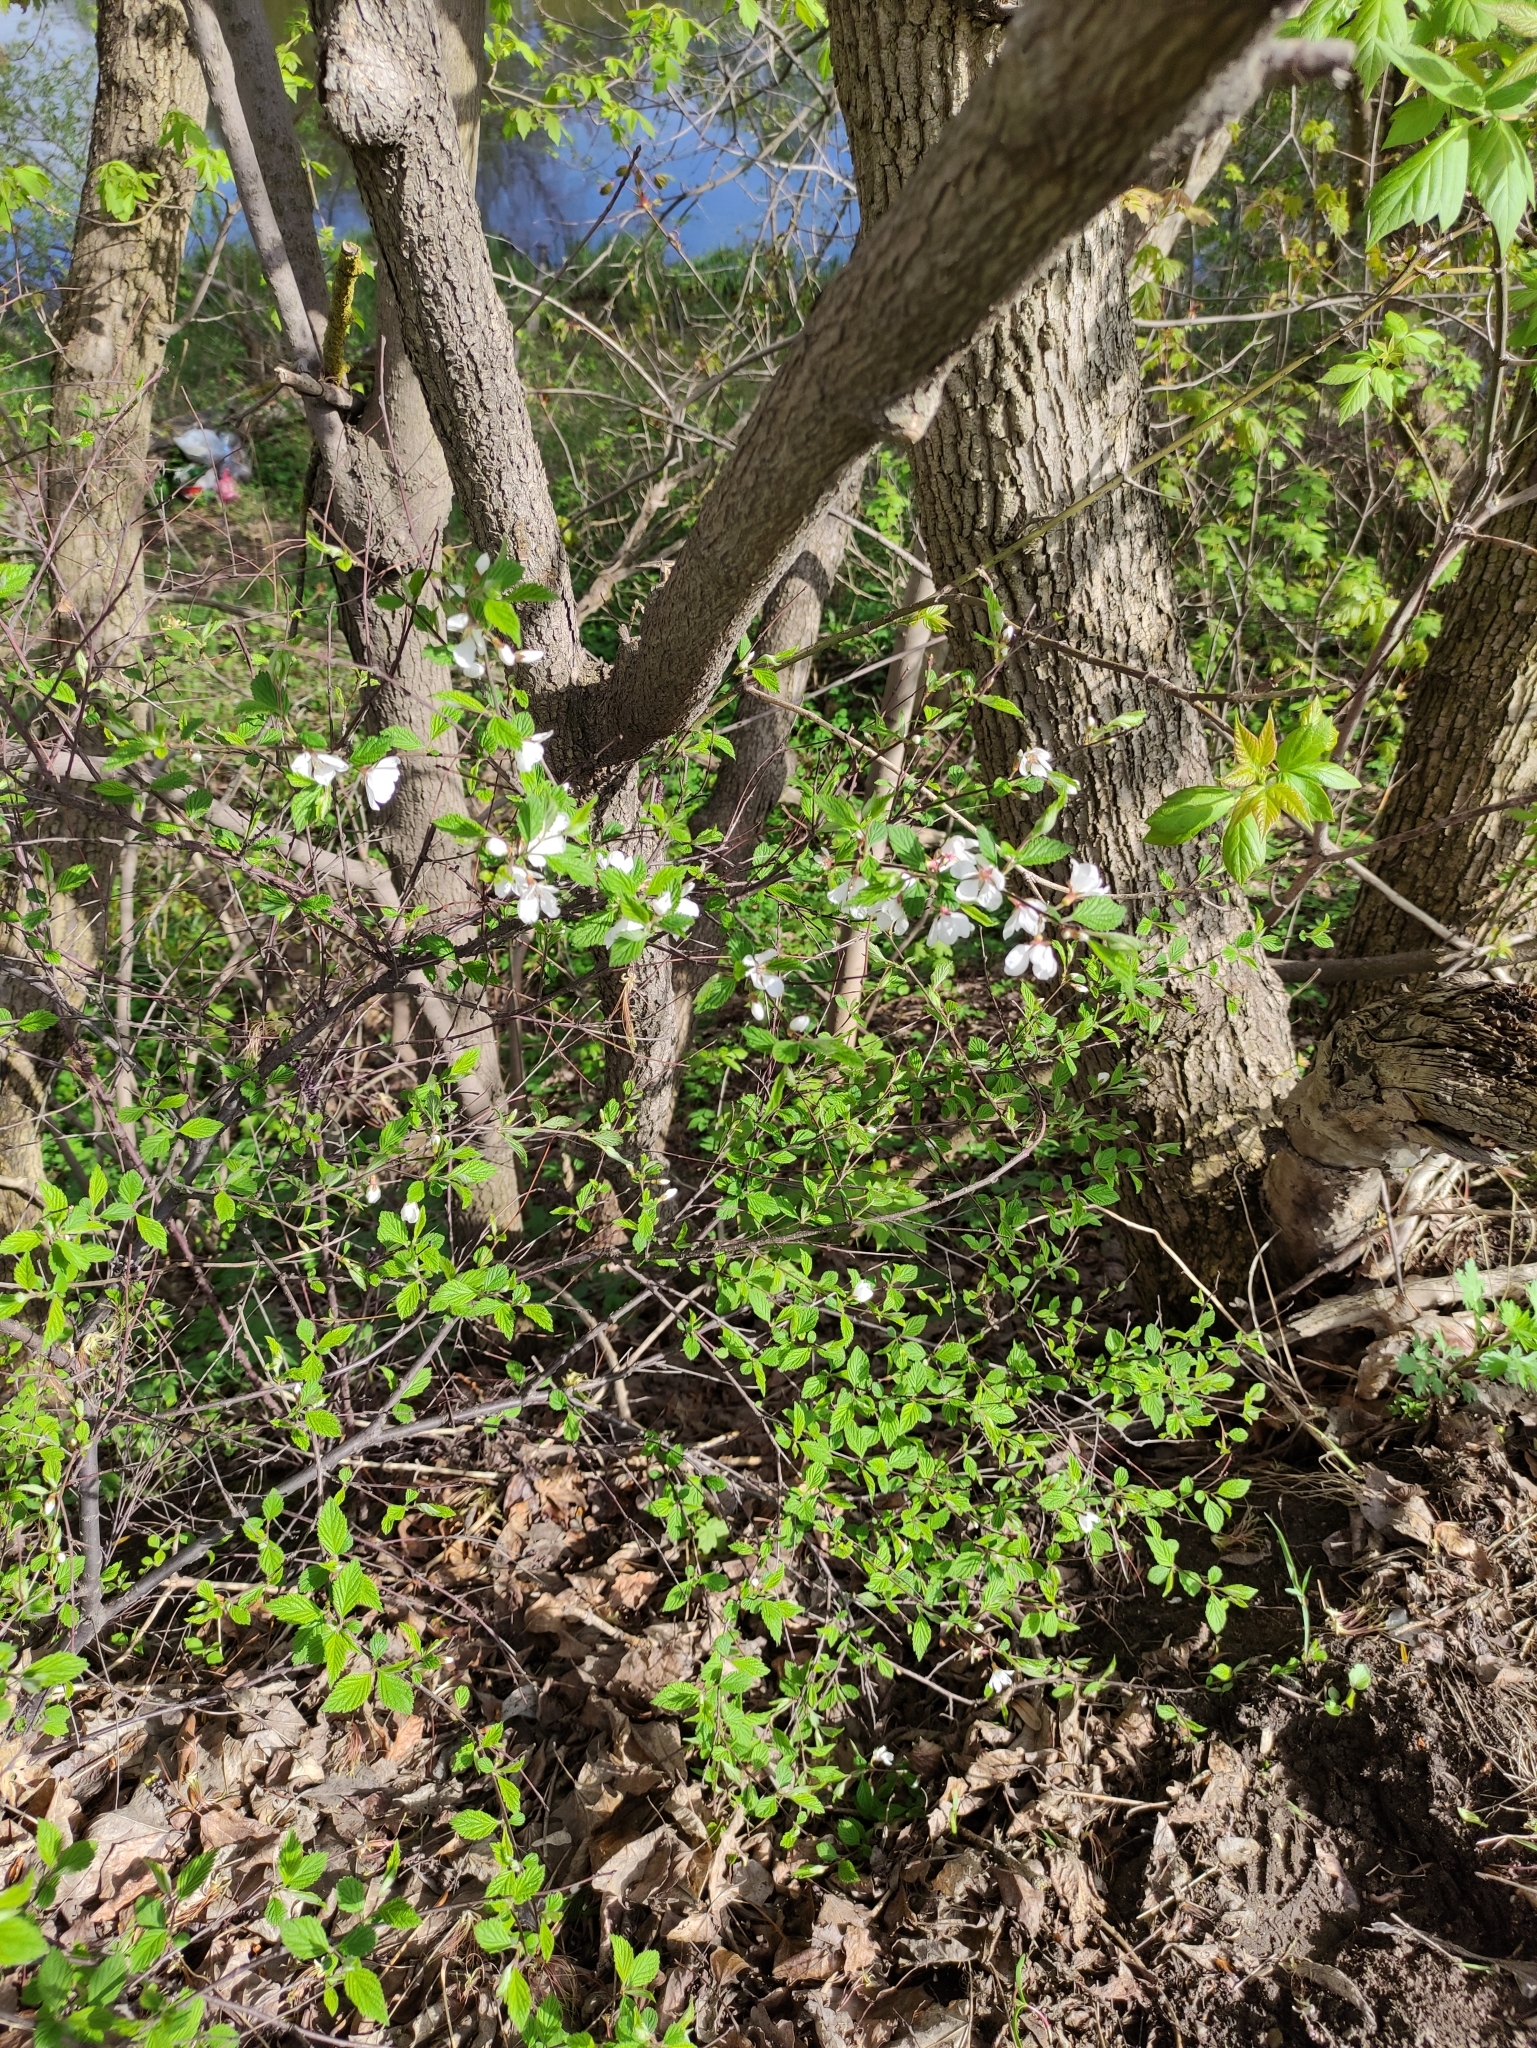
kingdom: Plantae
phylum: Tracheophyta
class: Magnoliopsida
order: Rosales
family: Rosaceae
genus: Prunus
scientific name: Prunus tomentosa
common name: Nanking cherry
